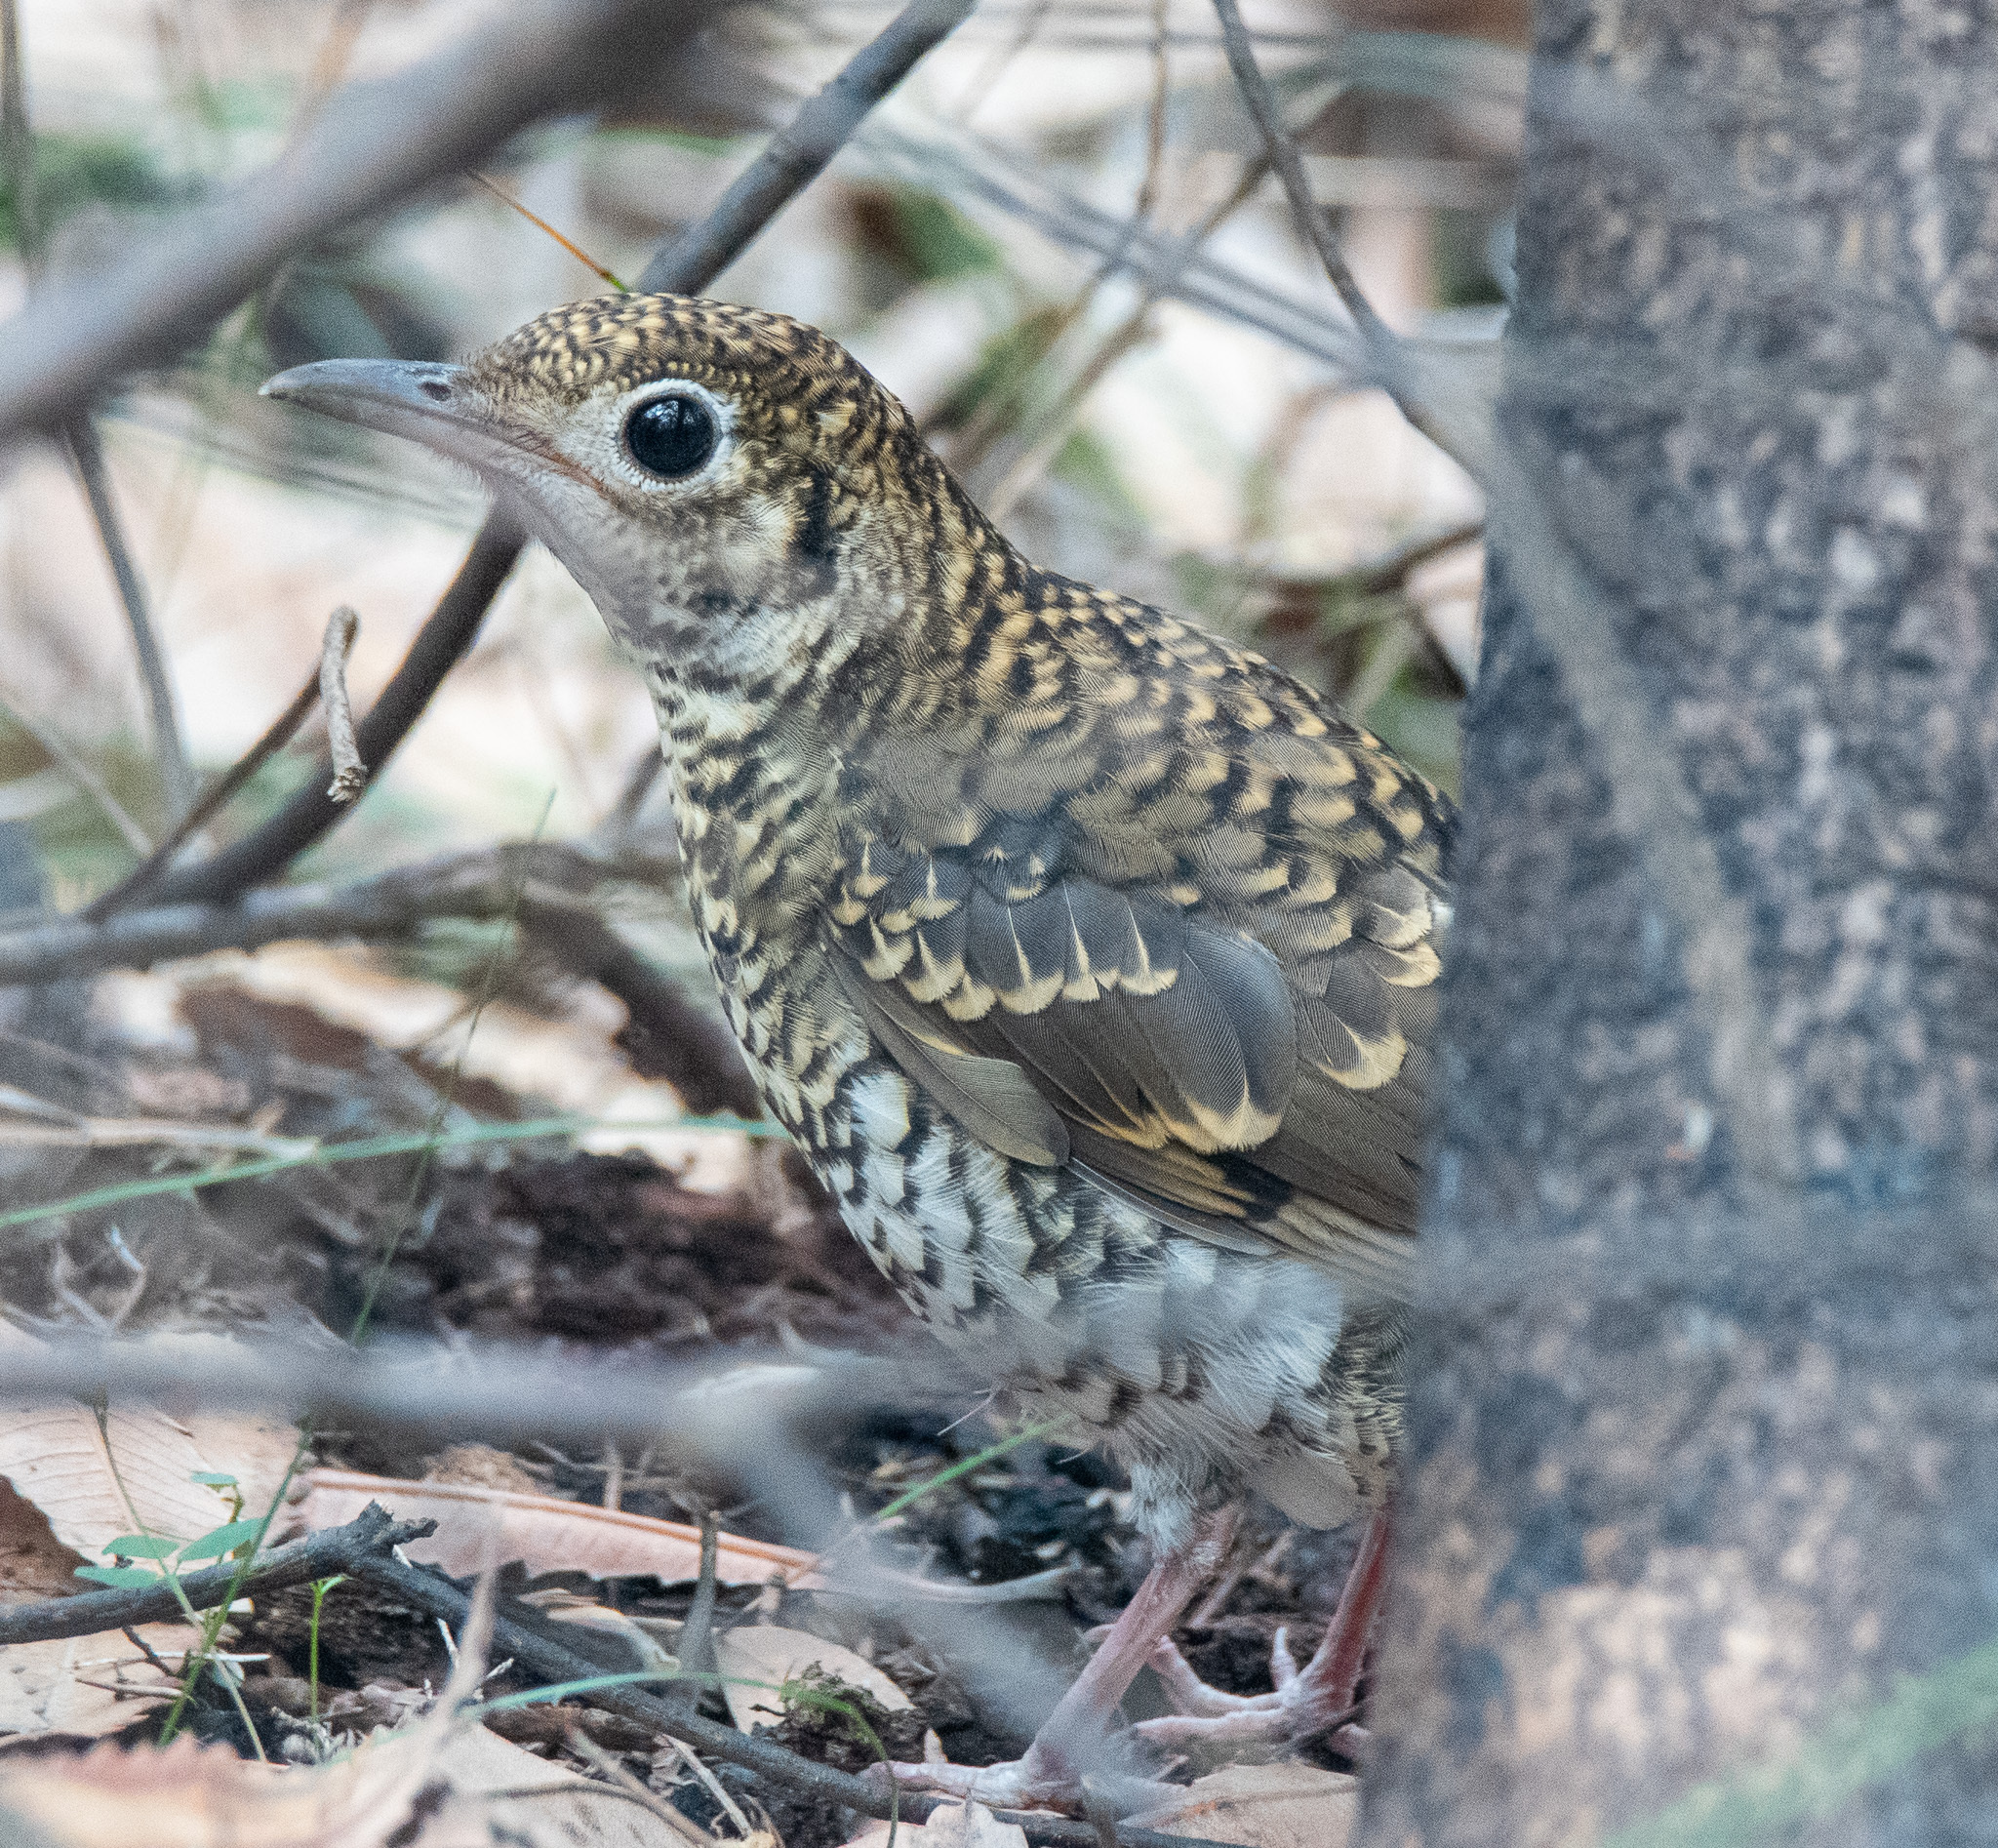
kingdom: Animalia
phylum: Chordata
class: Aves
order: Passeriformes
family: Turdidae
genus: Zoothera
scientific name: Zoothera lunulata
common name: Bassian thrush
